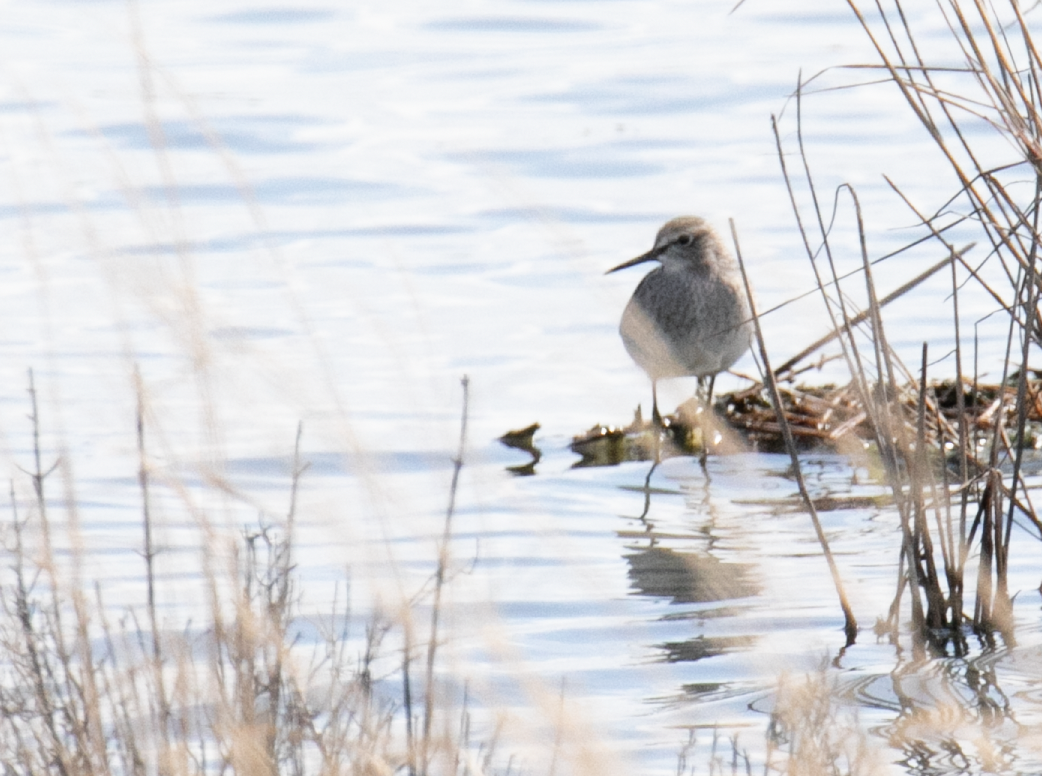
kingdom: Animalia
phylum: Chordata
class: Aves
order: Charadriiformes
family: Scolopacidae
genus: Tringa
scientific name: Tringa glareola
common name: Wood sandpiper
